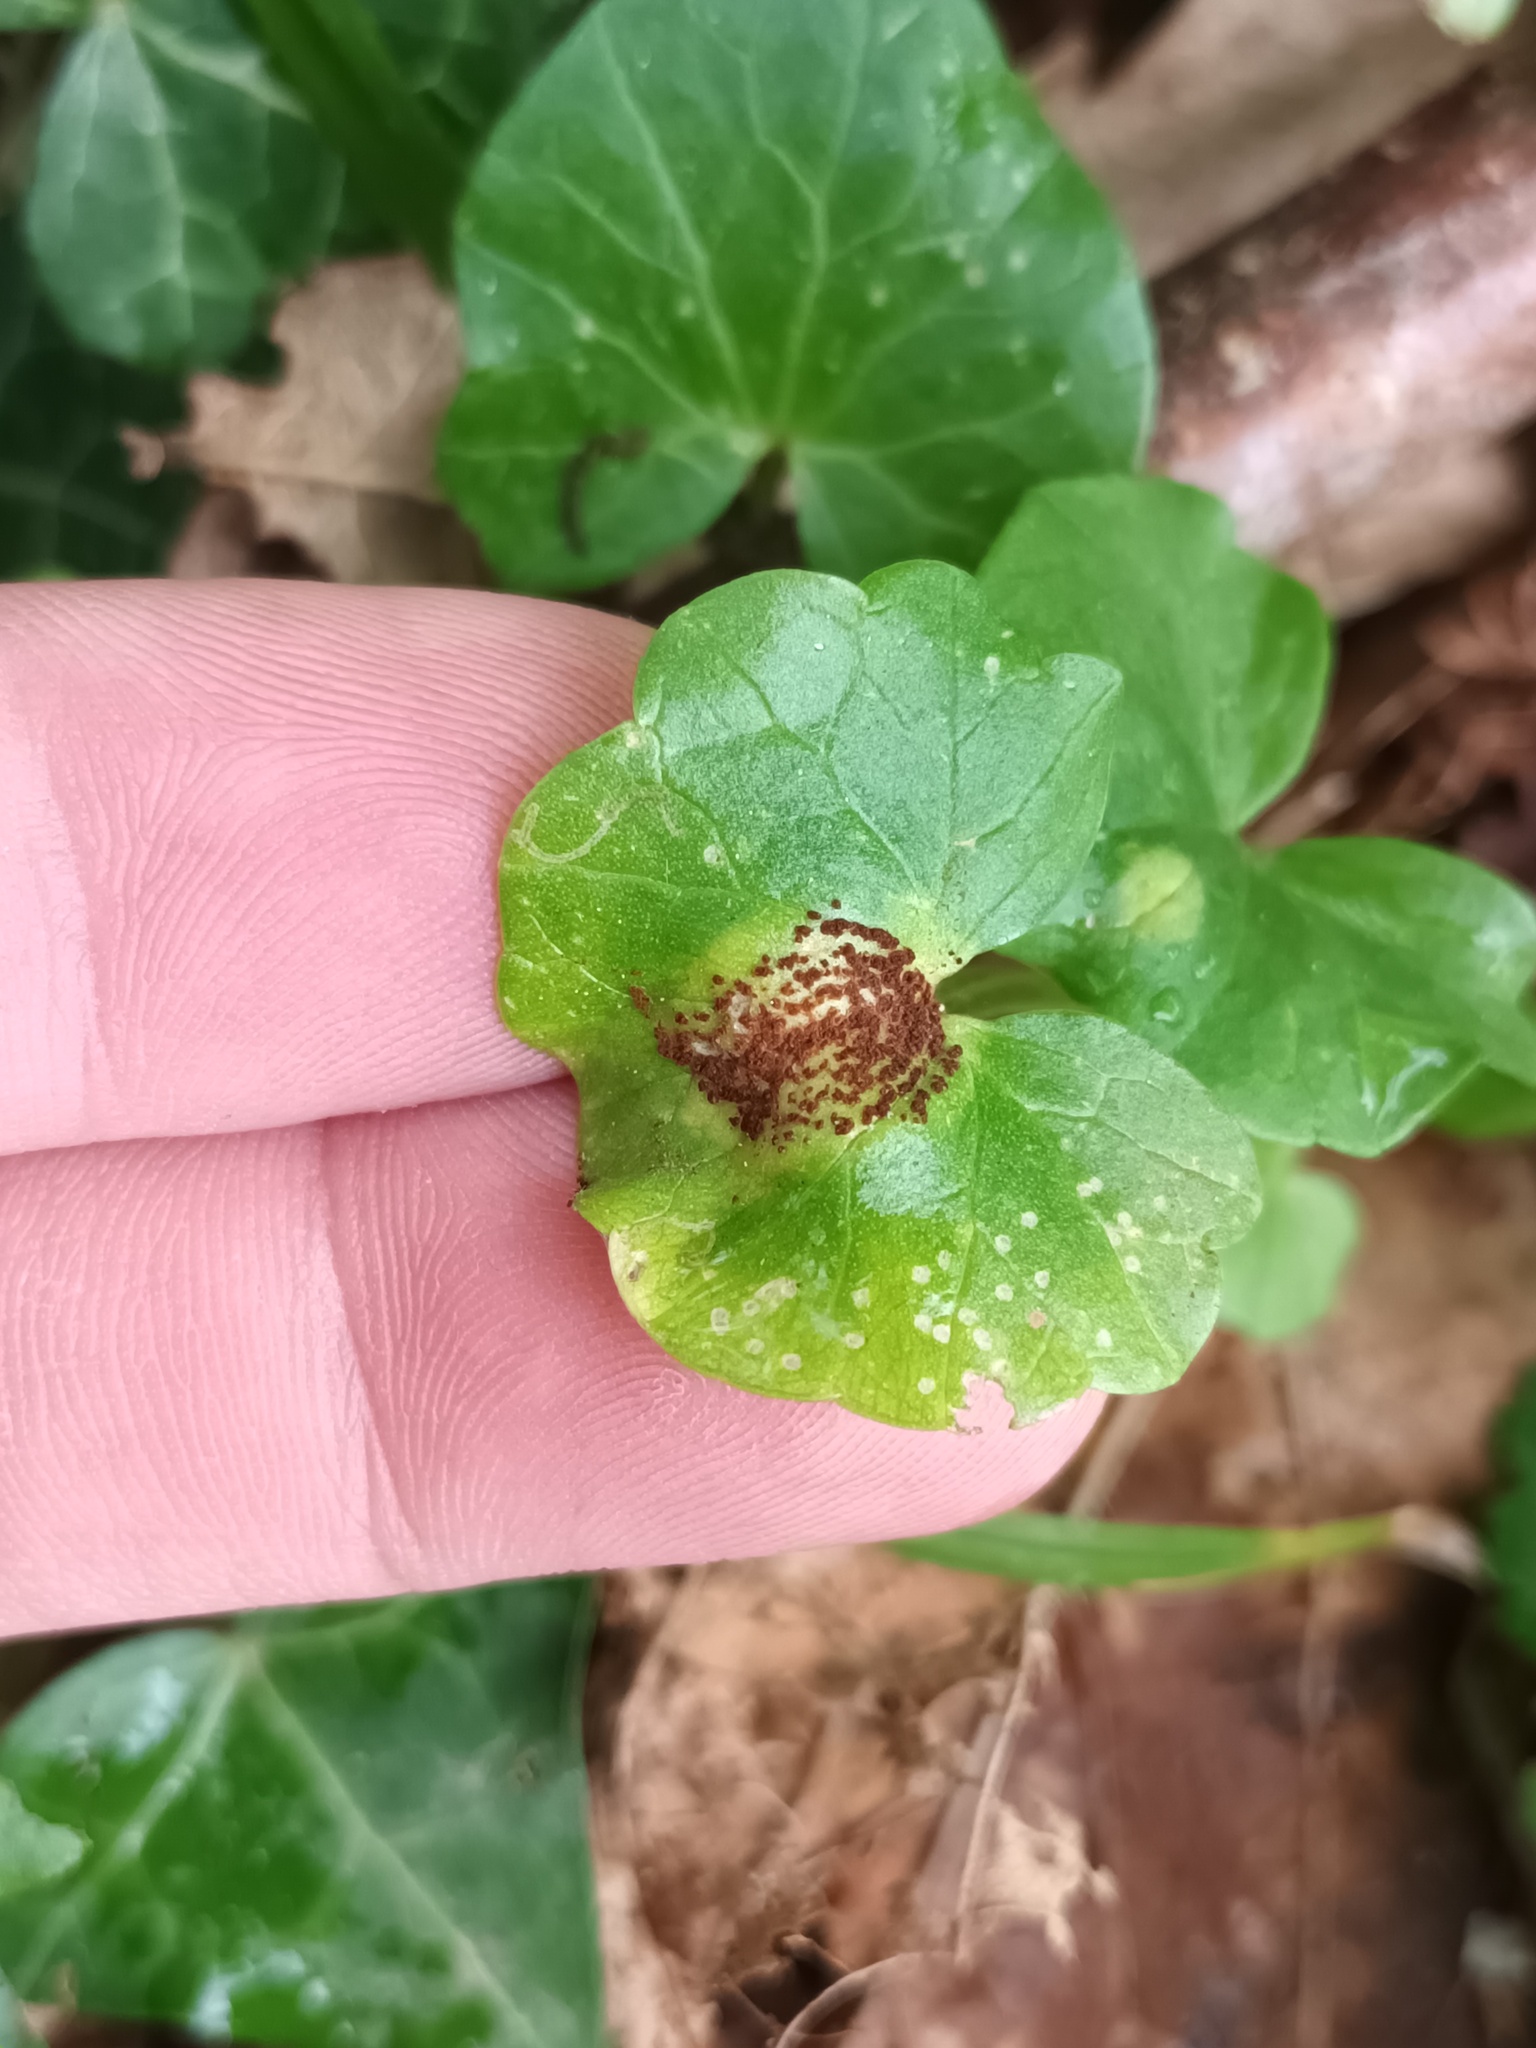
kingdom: Fungi
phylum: Basidiomycota
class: Pucciniomycetes
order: Pucciniales
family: Pucciniaceae
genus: Uromyces
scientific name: Uromyces ficariae
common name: Bitter chocolate rust
